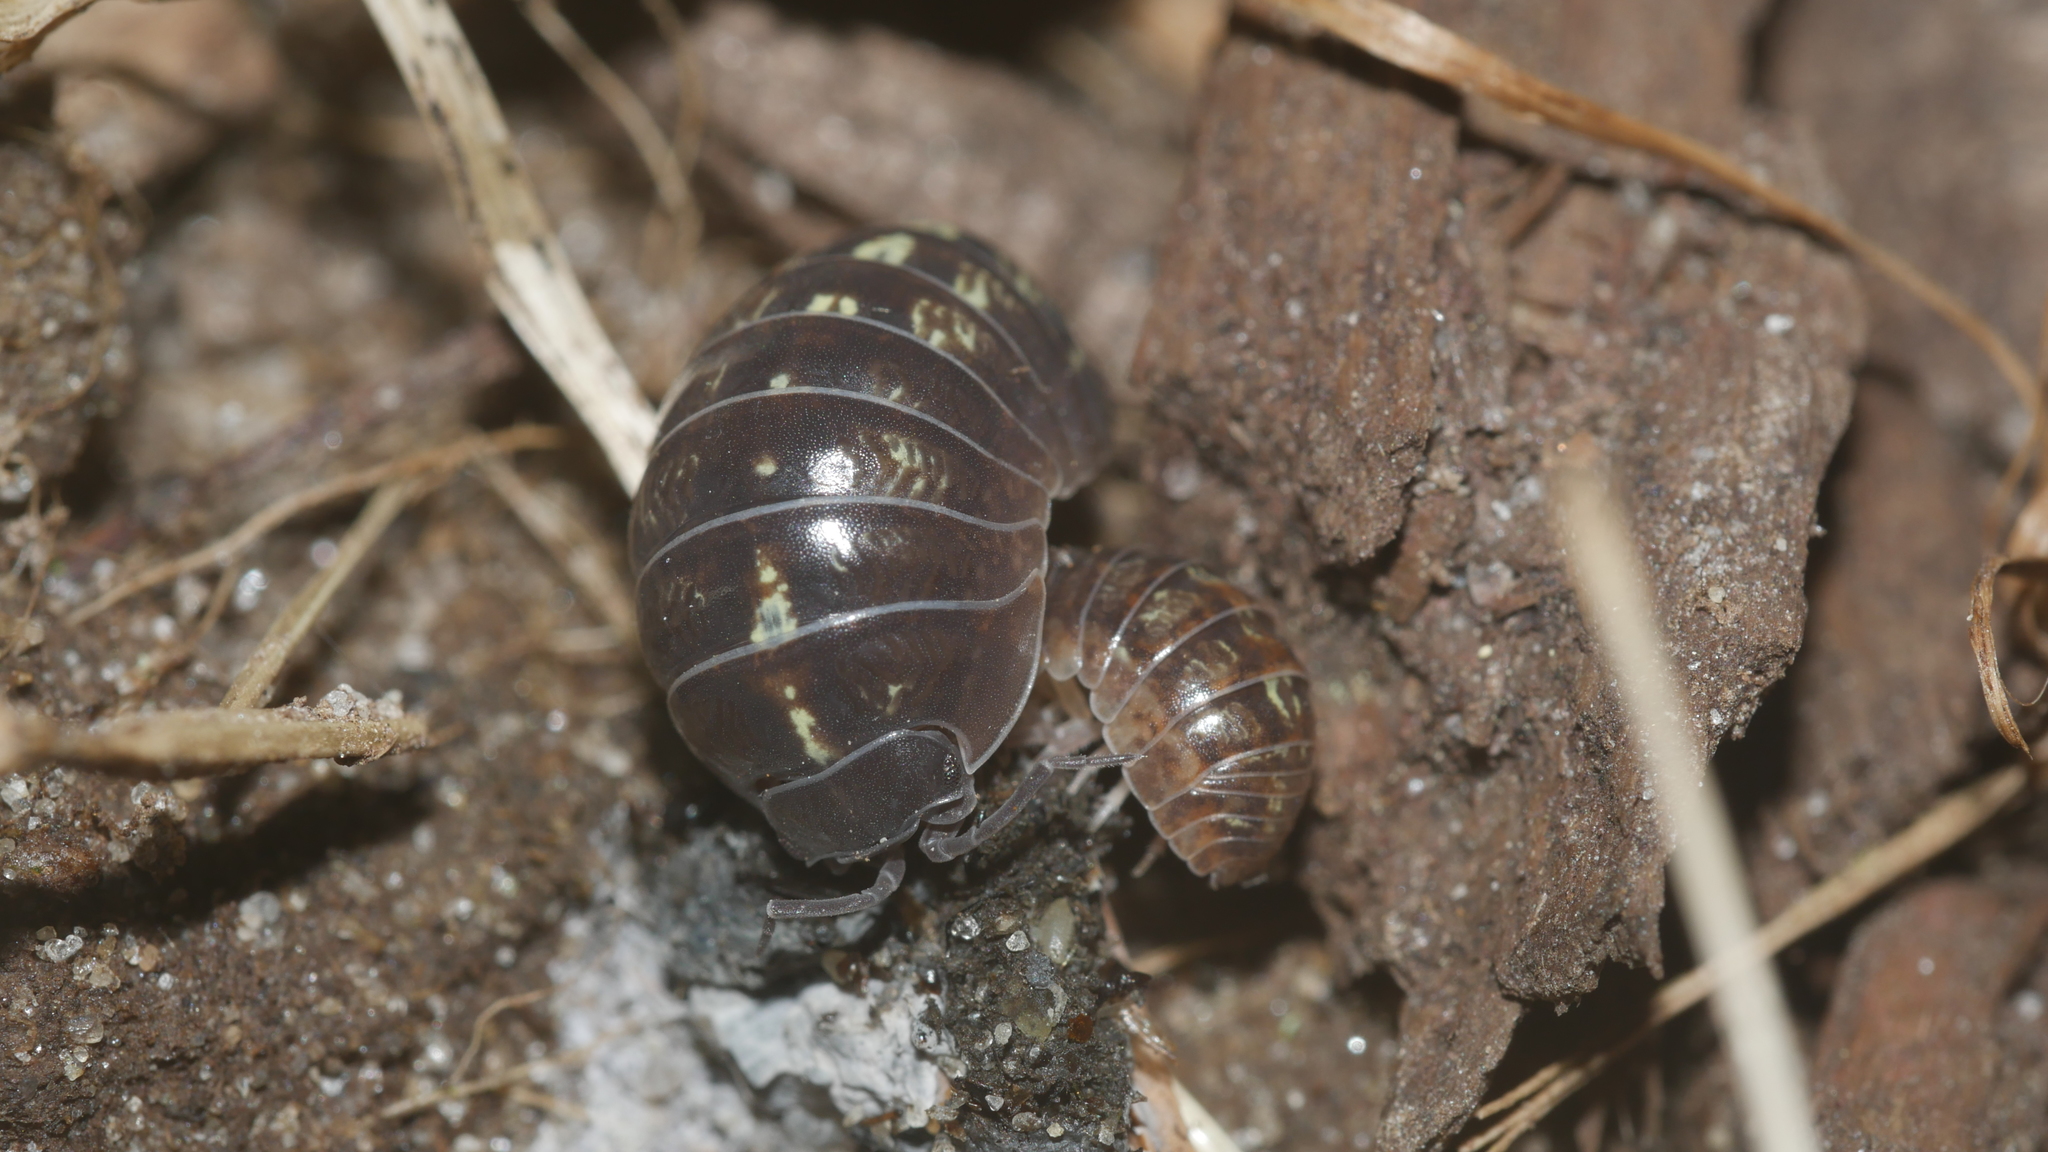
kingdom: Animalia
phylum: Arthropoda
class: Malacostraca
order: Isopoda
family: Armadillidiidae
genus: Armadillidium
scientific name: Armadillidium vulgare
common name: Common pill woodlouse
